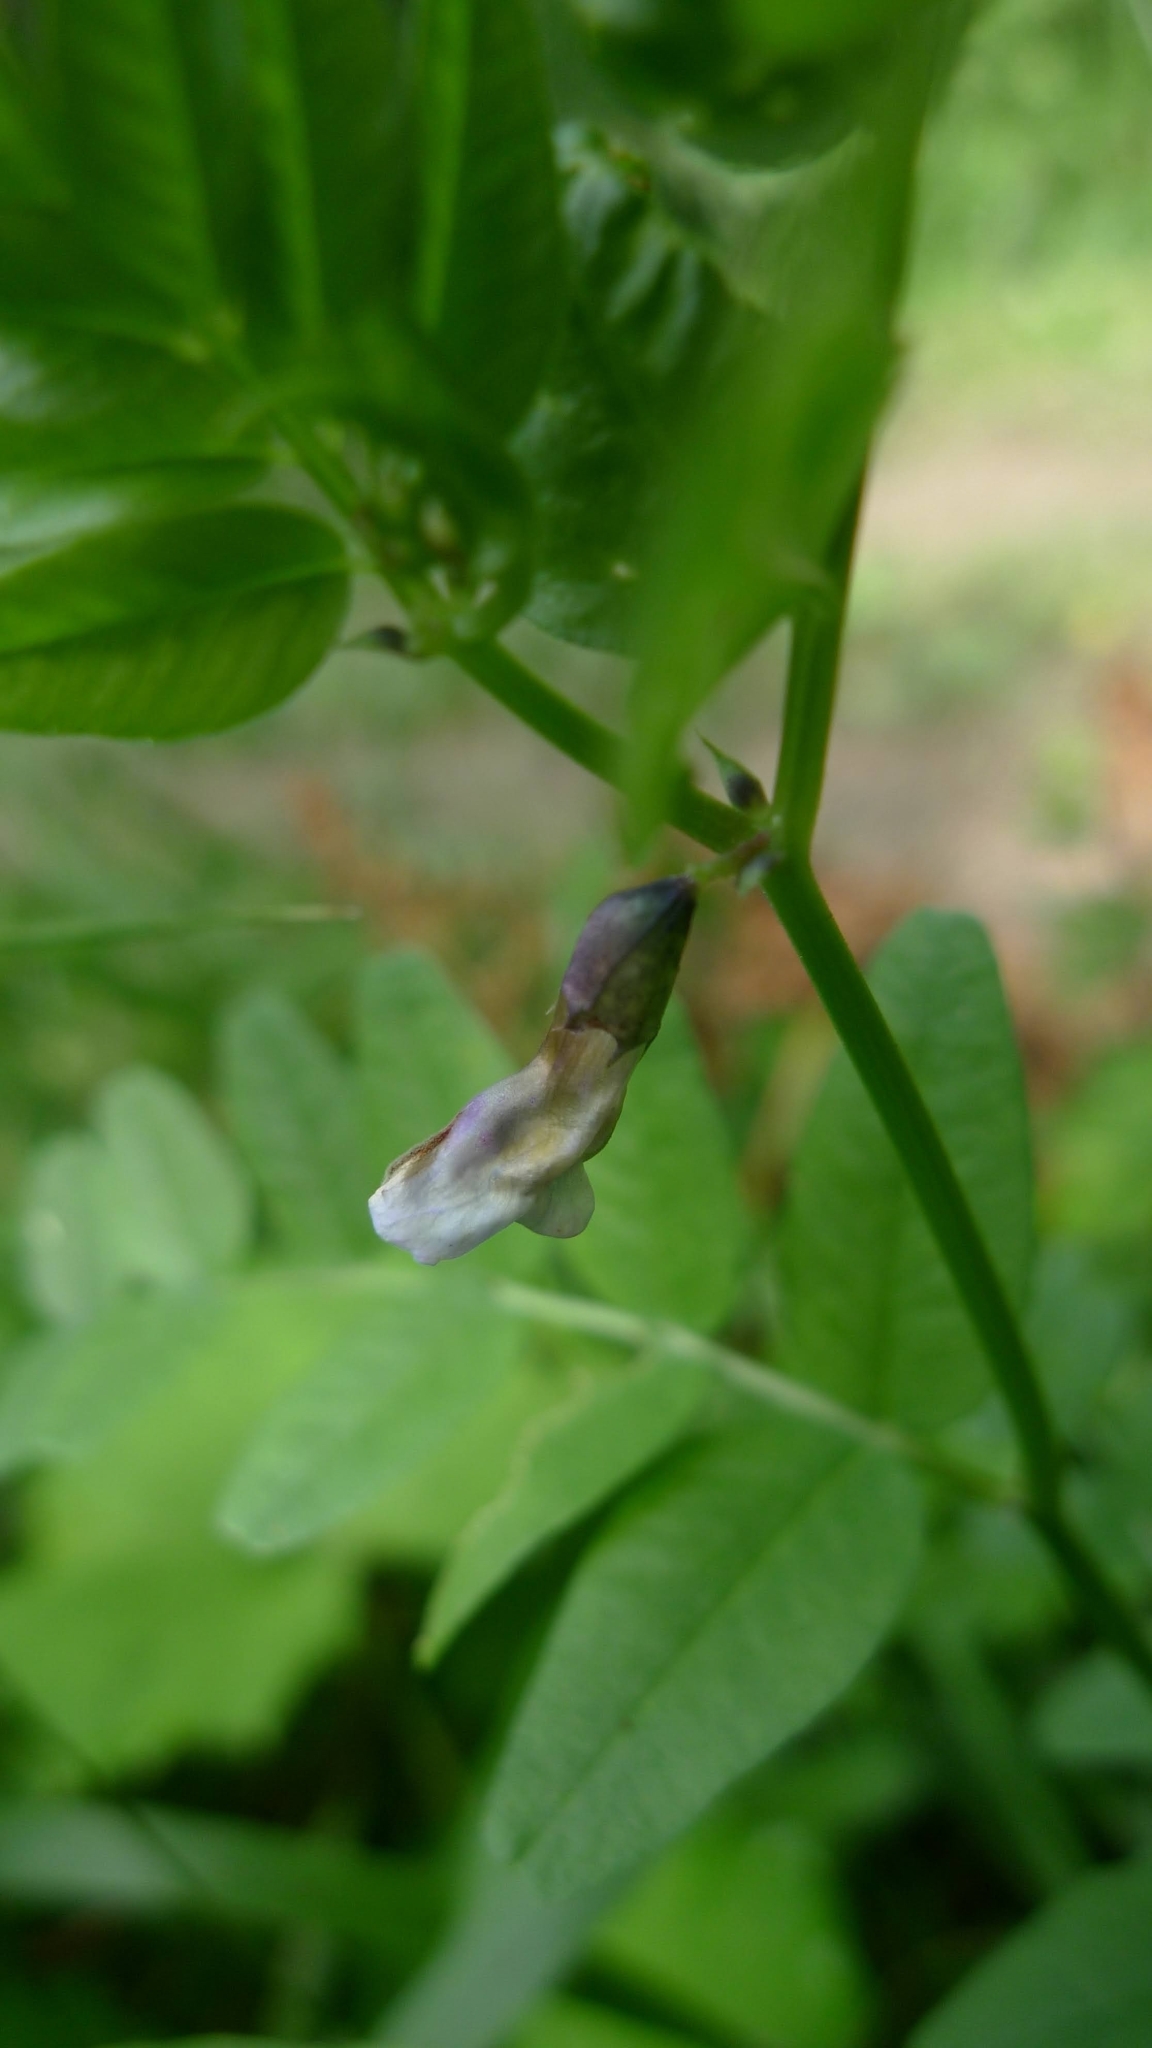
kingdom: Plantae
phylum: Tracheophyta
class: Magnoliopsida
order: Fabales
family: Fabaceae
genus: Vicia
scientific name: Vicia sepium
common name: Bush vetch
